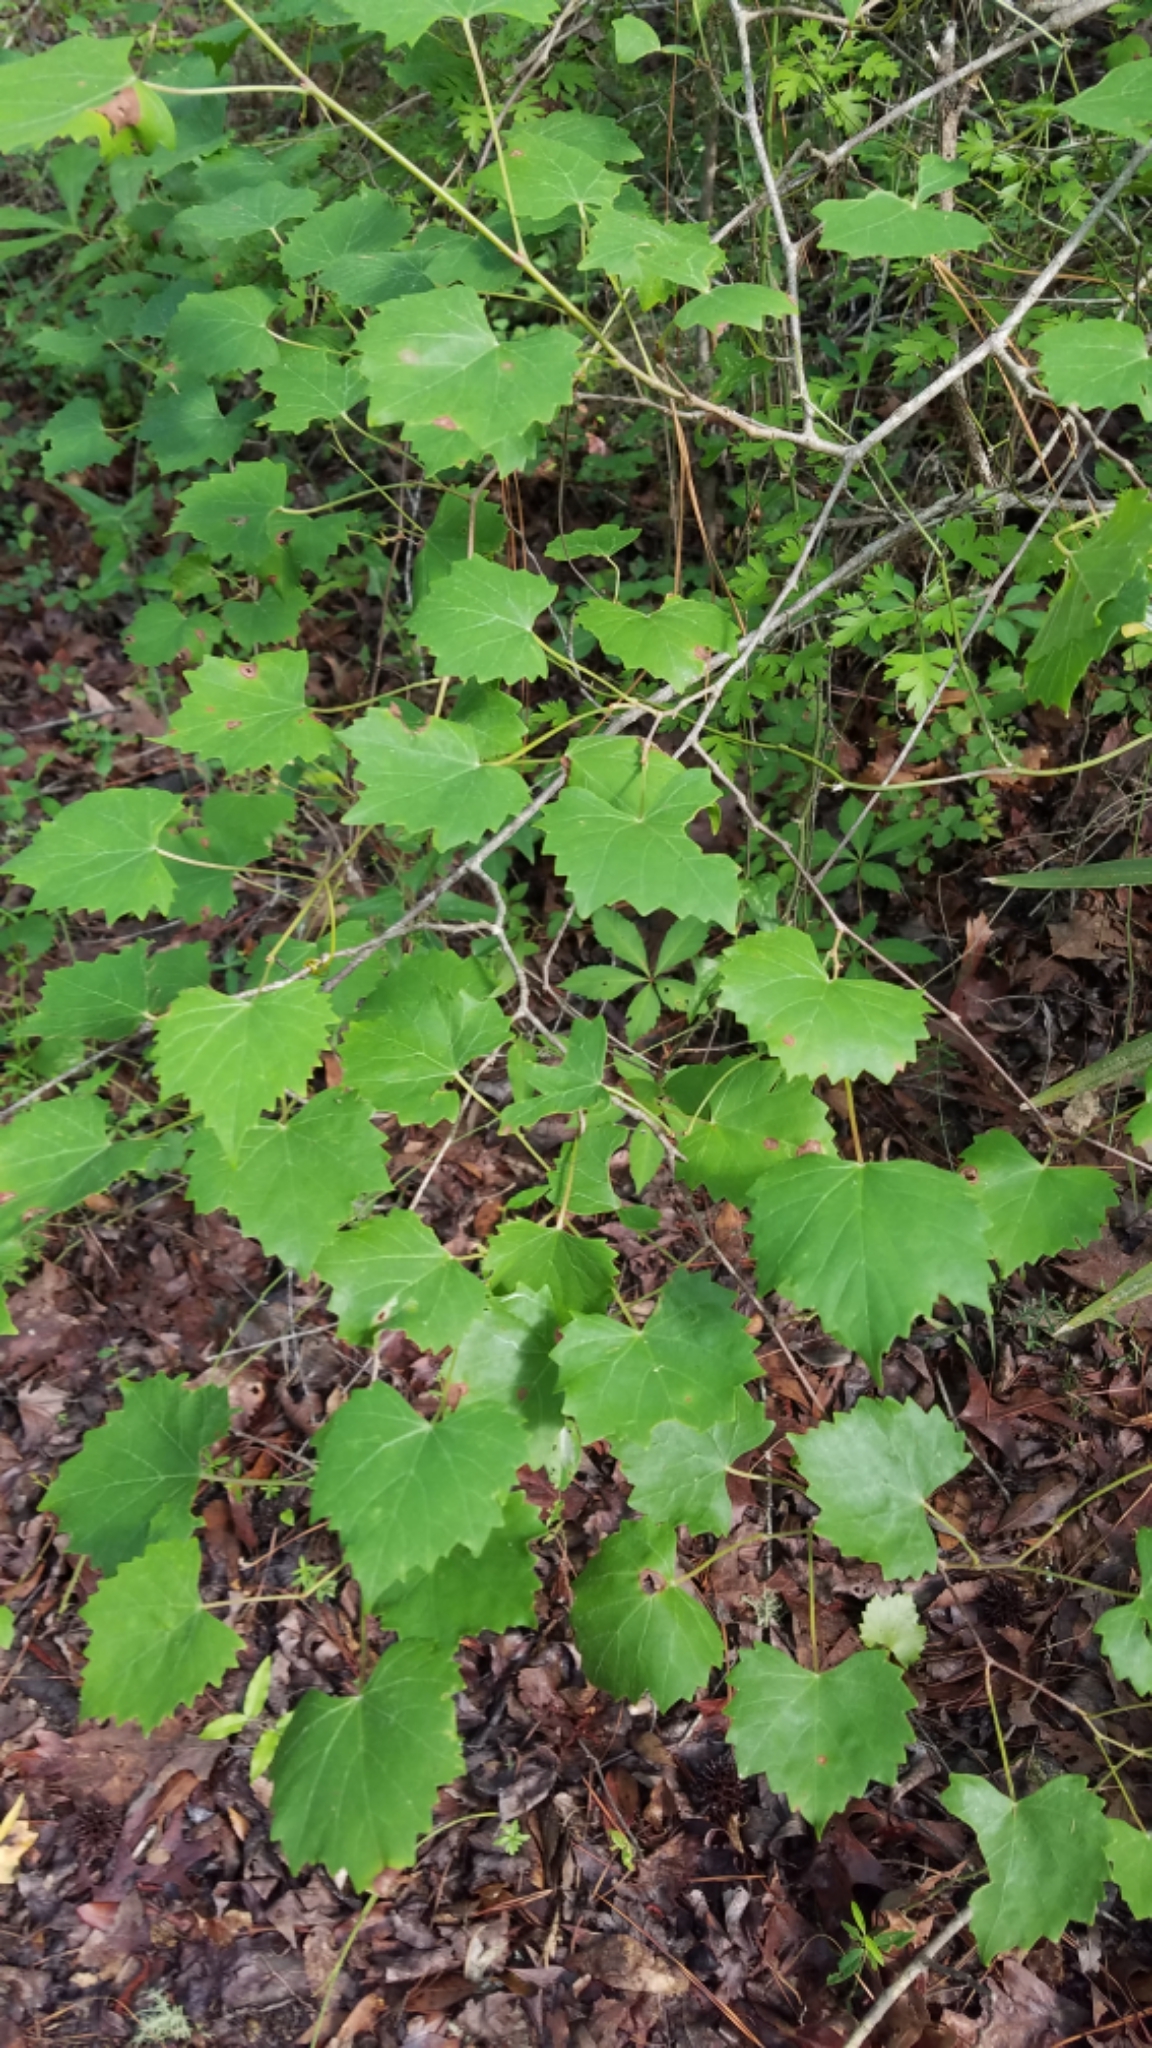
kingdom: Plantae
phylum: Tracheophyta
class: Magnoliopsida
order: Vitales
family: Vitaceae
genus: Vitis
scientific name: Vitis rotundifolia
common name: Muscadine grape
